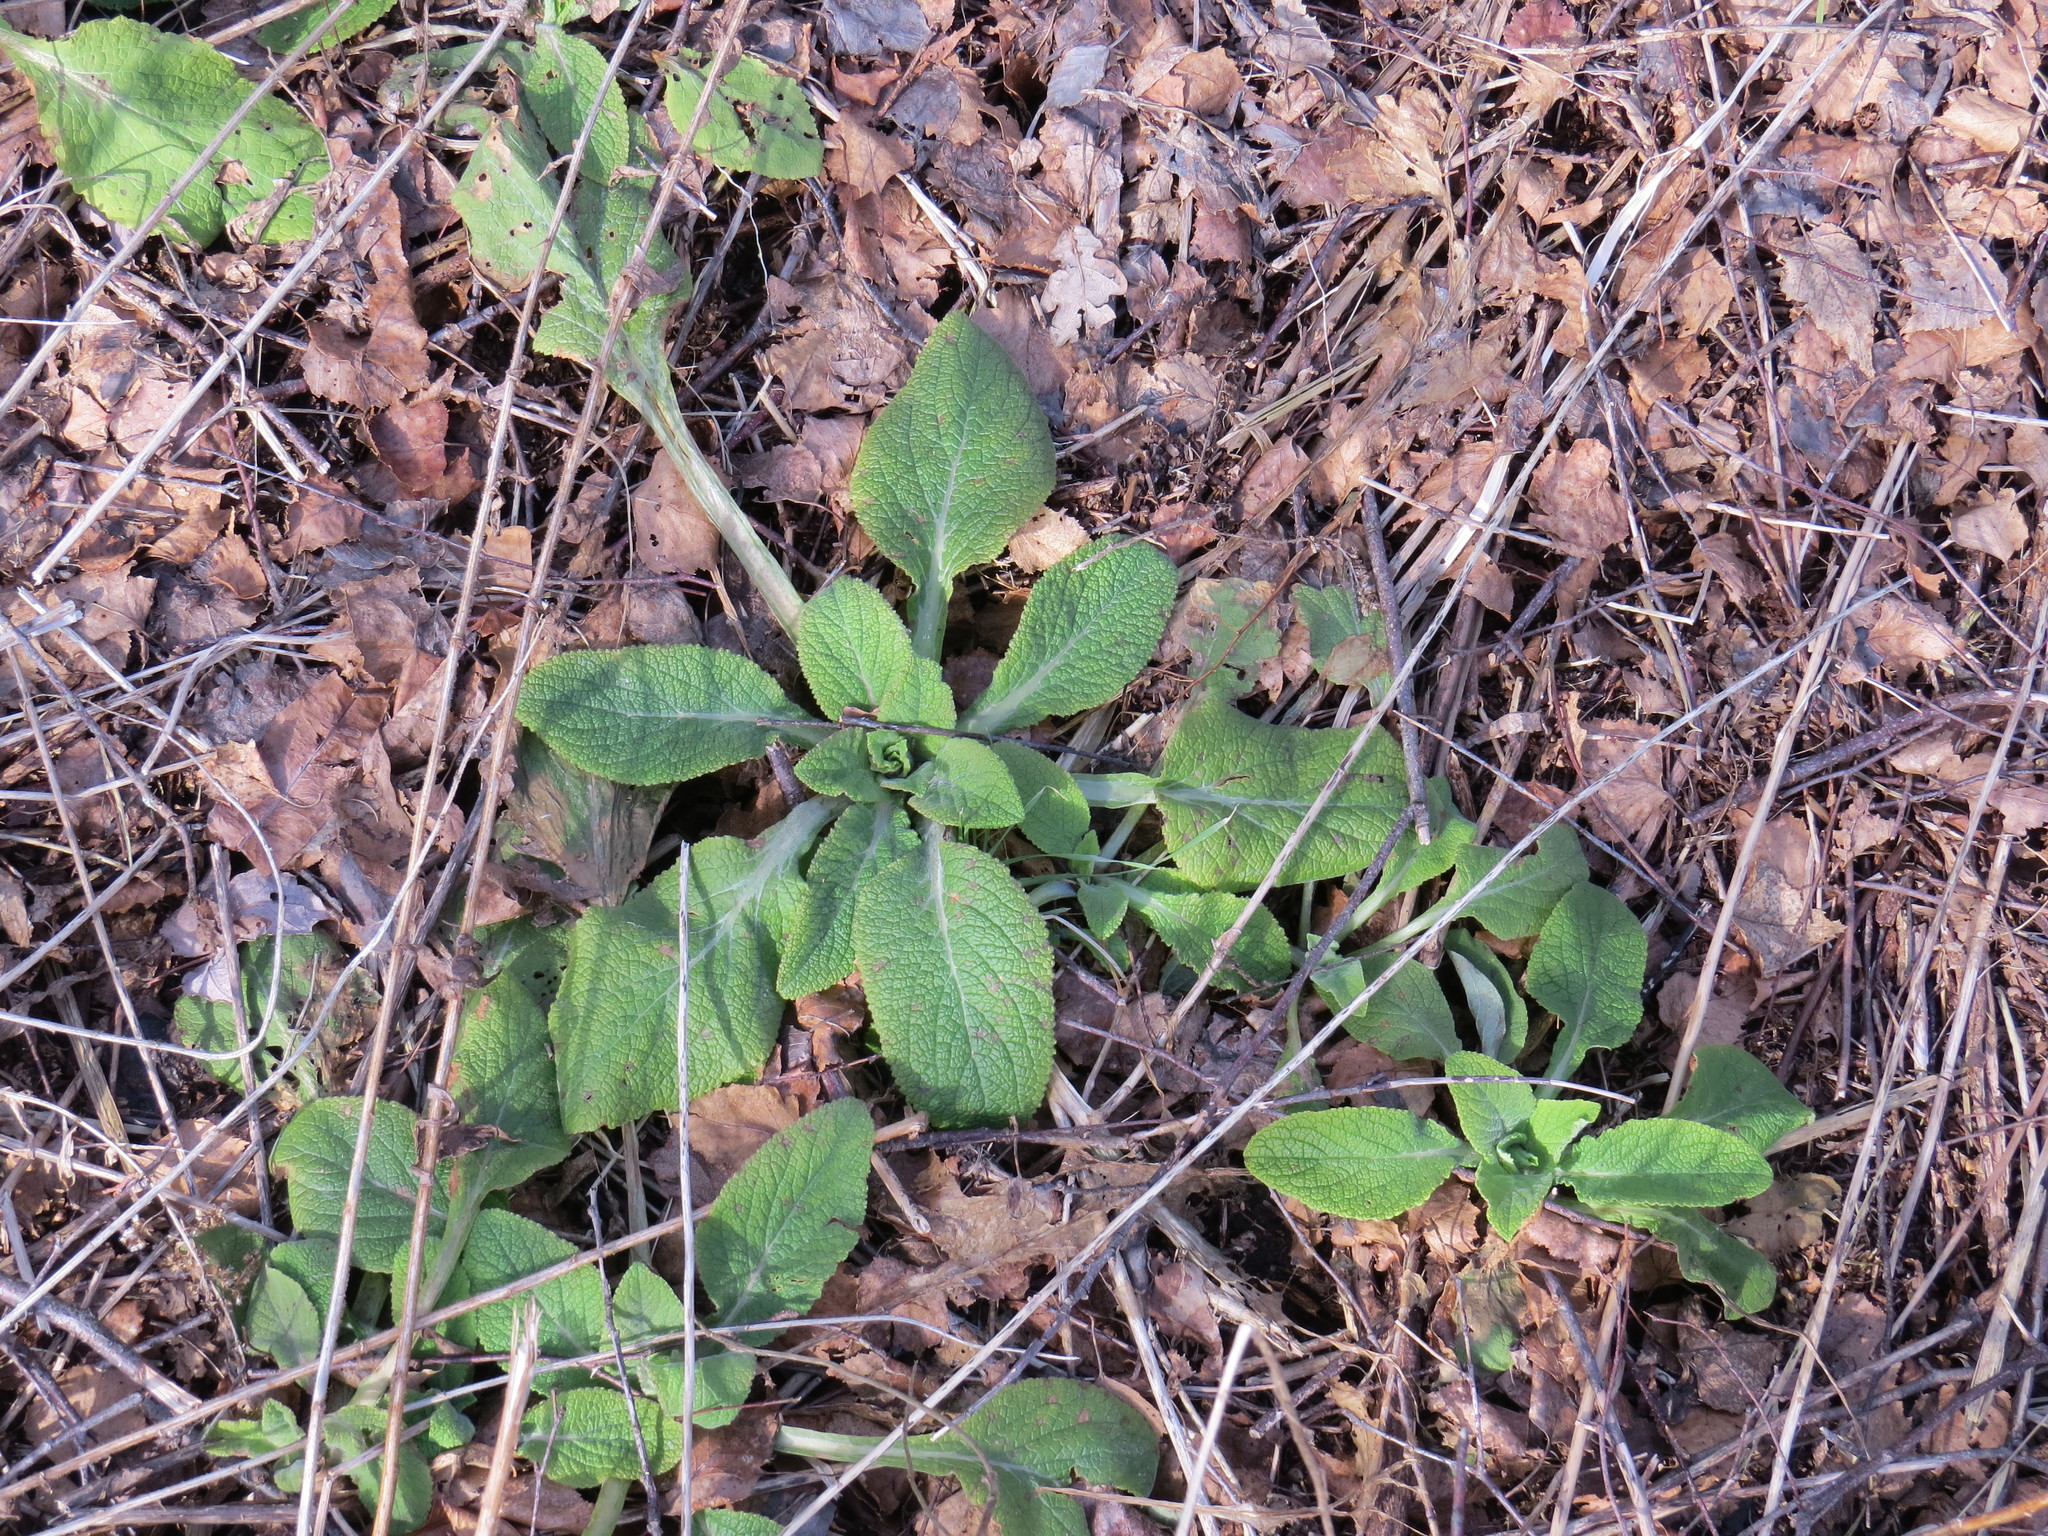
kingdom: Plantae
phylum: Tracheophyta
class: Magnoliopsida
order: Lamiales
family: Plantaginaceae
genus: Digitalis
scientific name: Digitalis purpurea
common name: Foxglove
